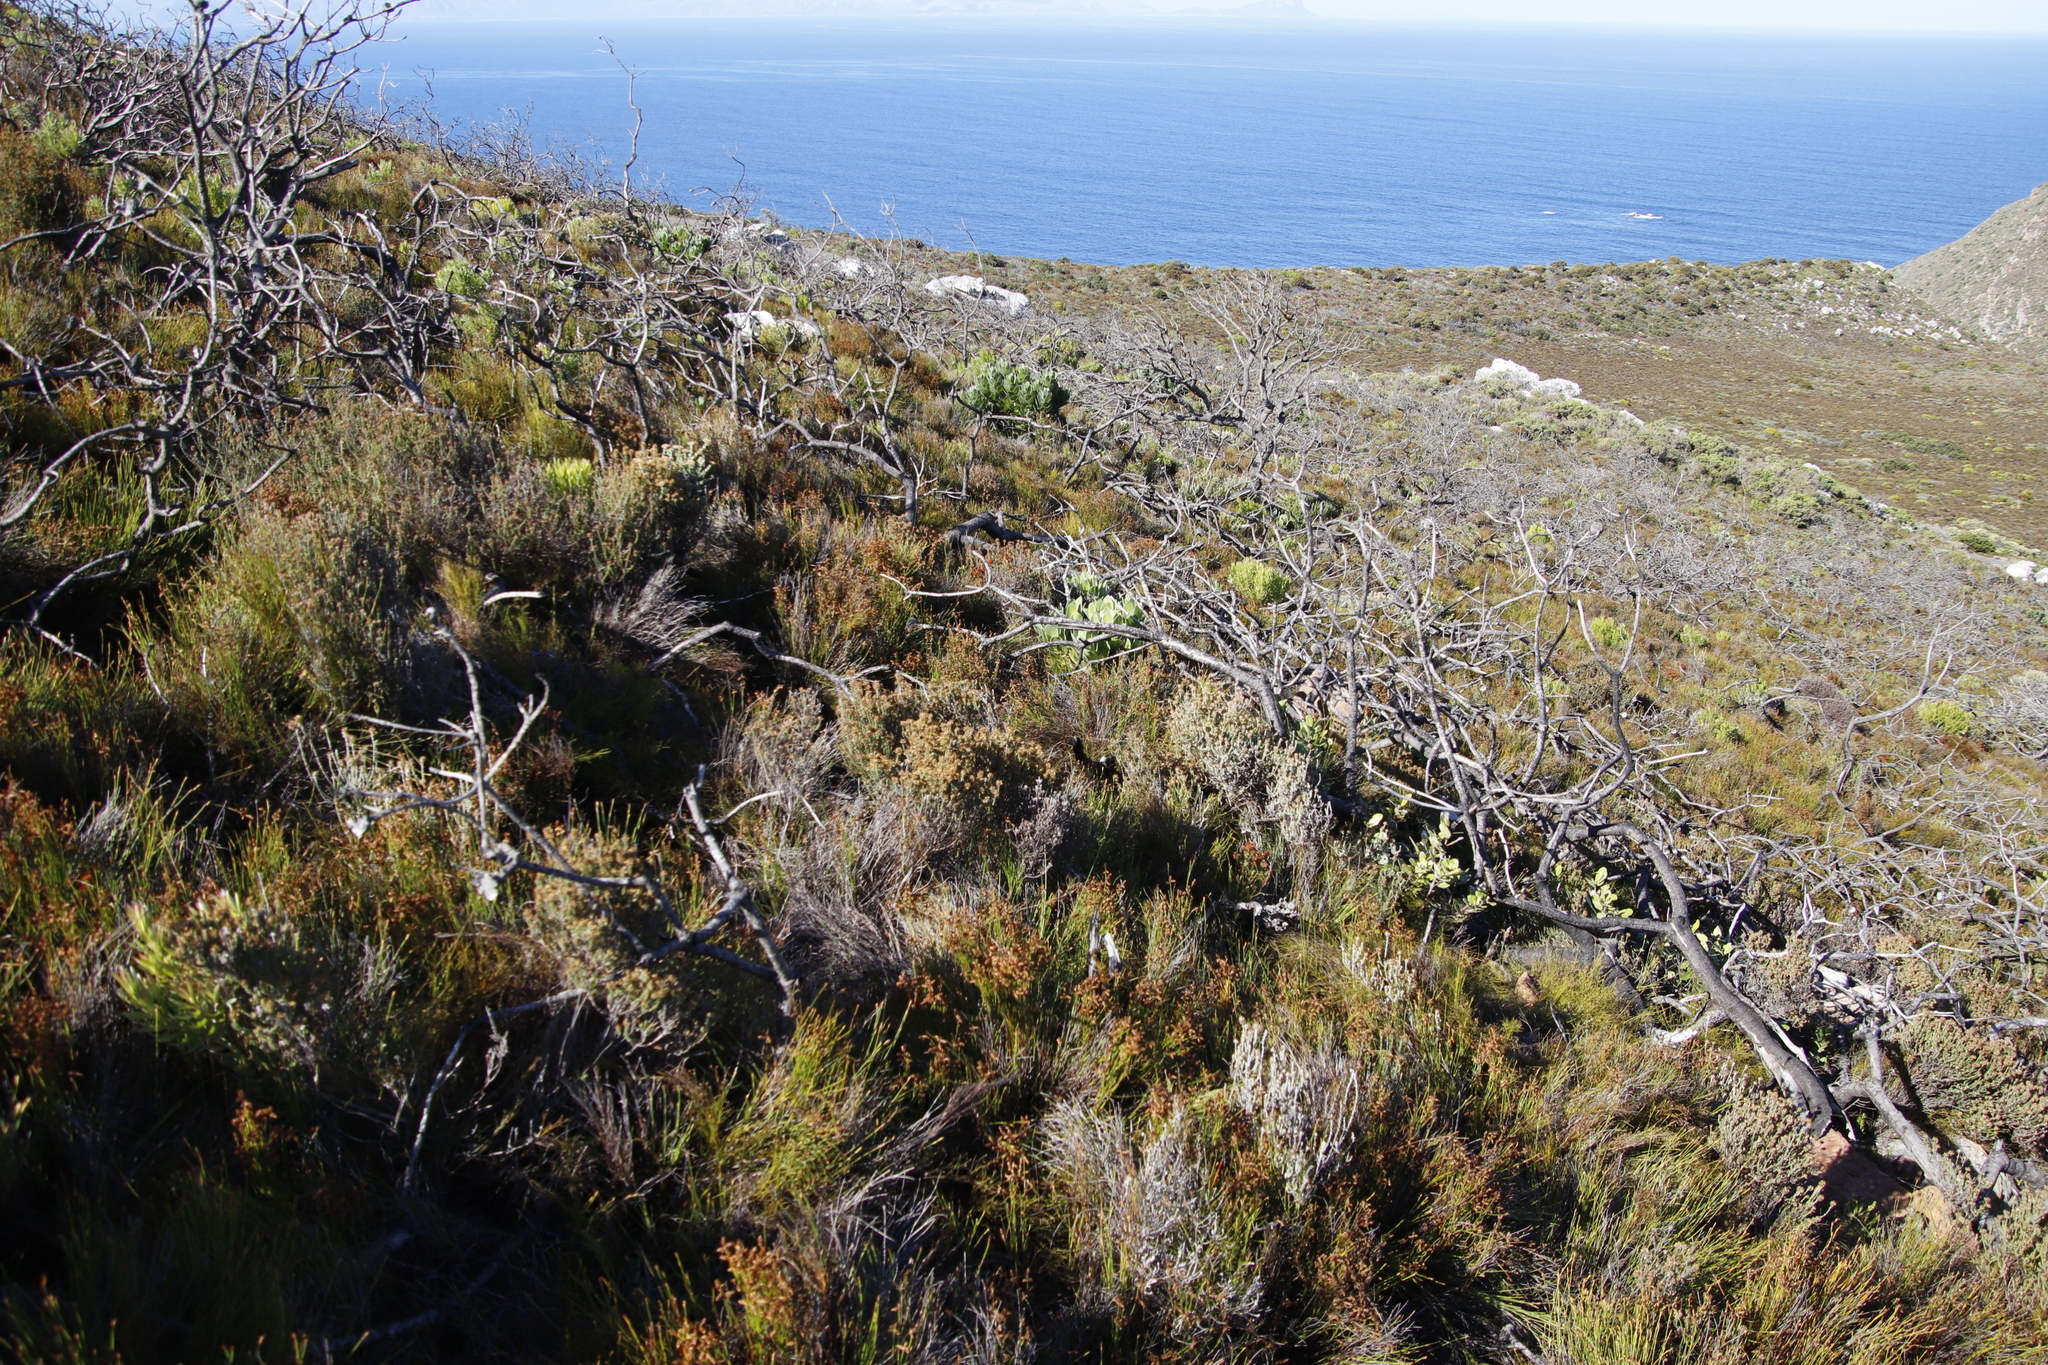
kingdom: Plantae
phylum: Tracheophyta
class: Liliopsida
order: Poales
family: Restionaceae
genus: Mastersiella
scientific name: Mastersiella digitata
